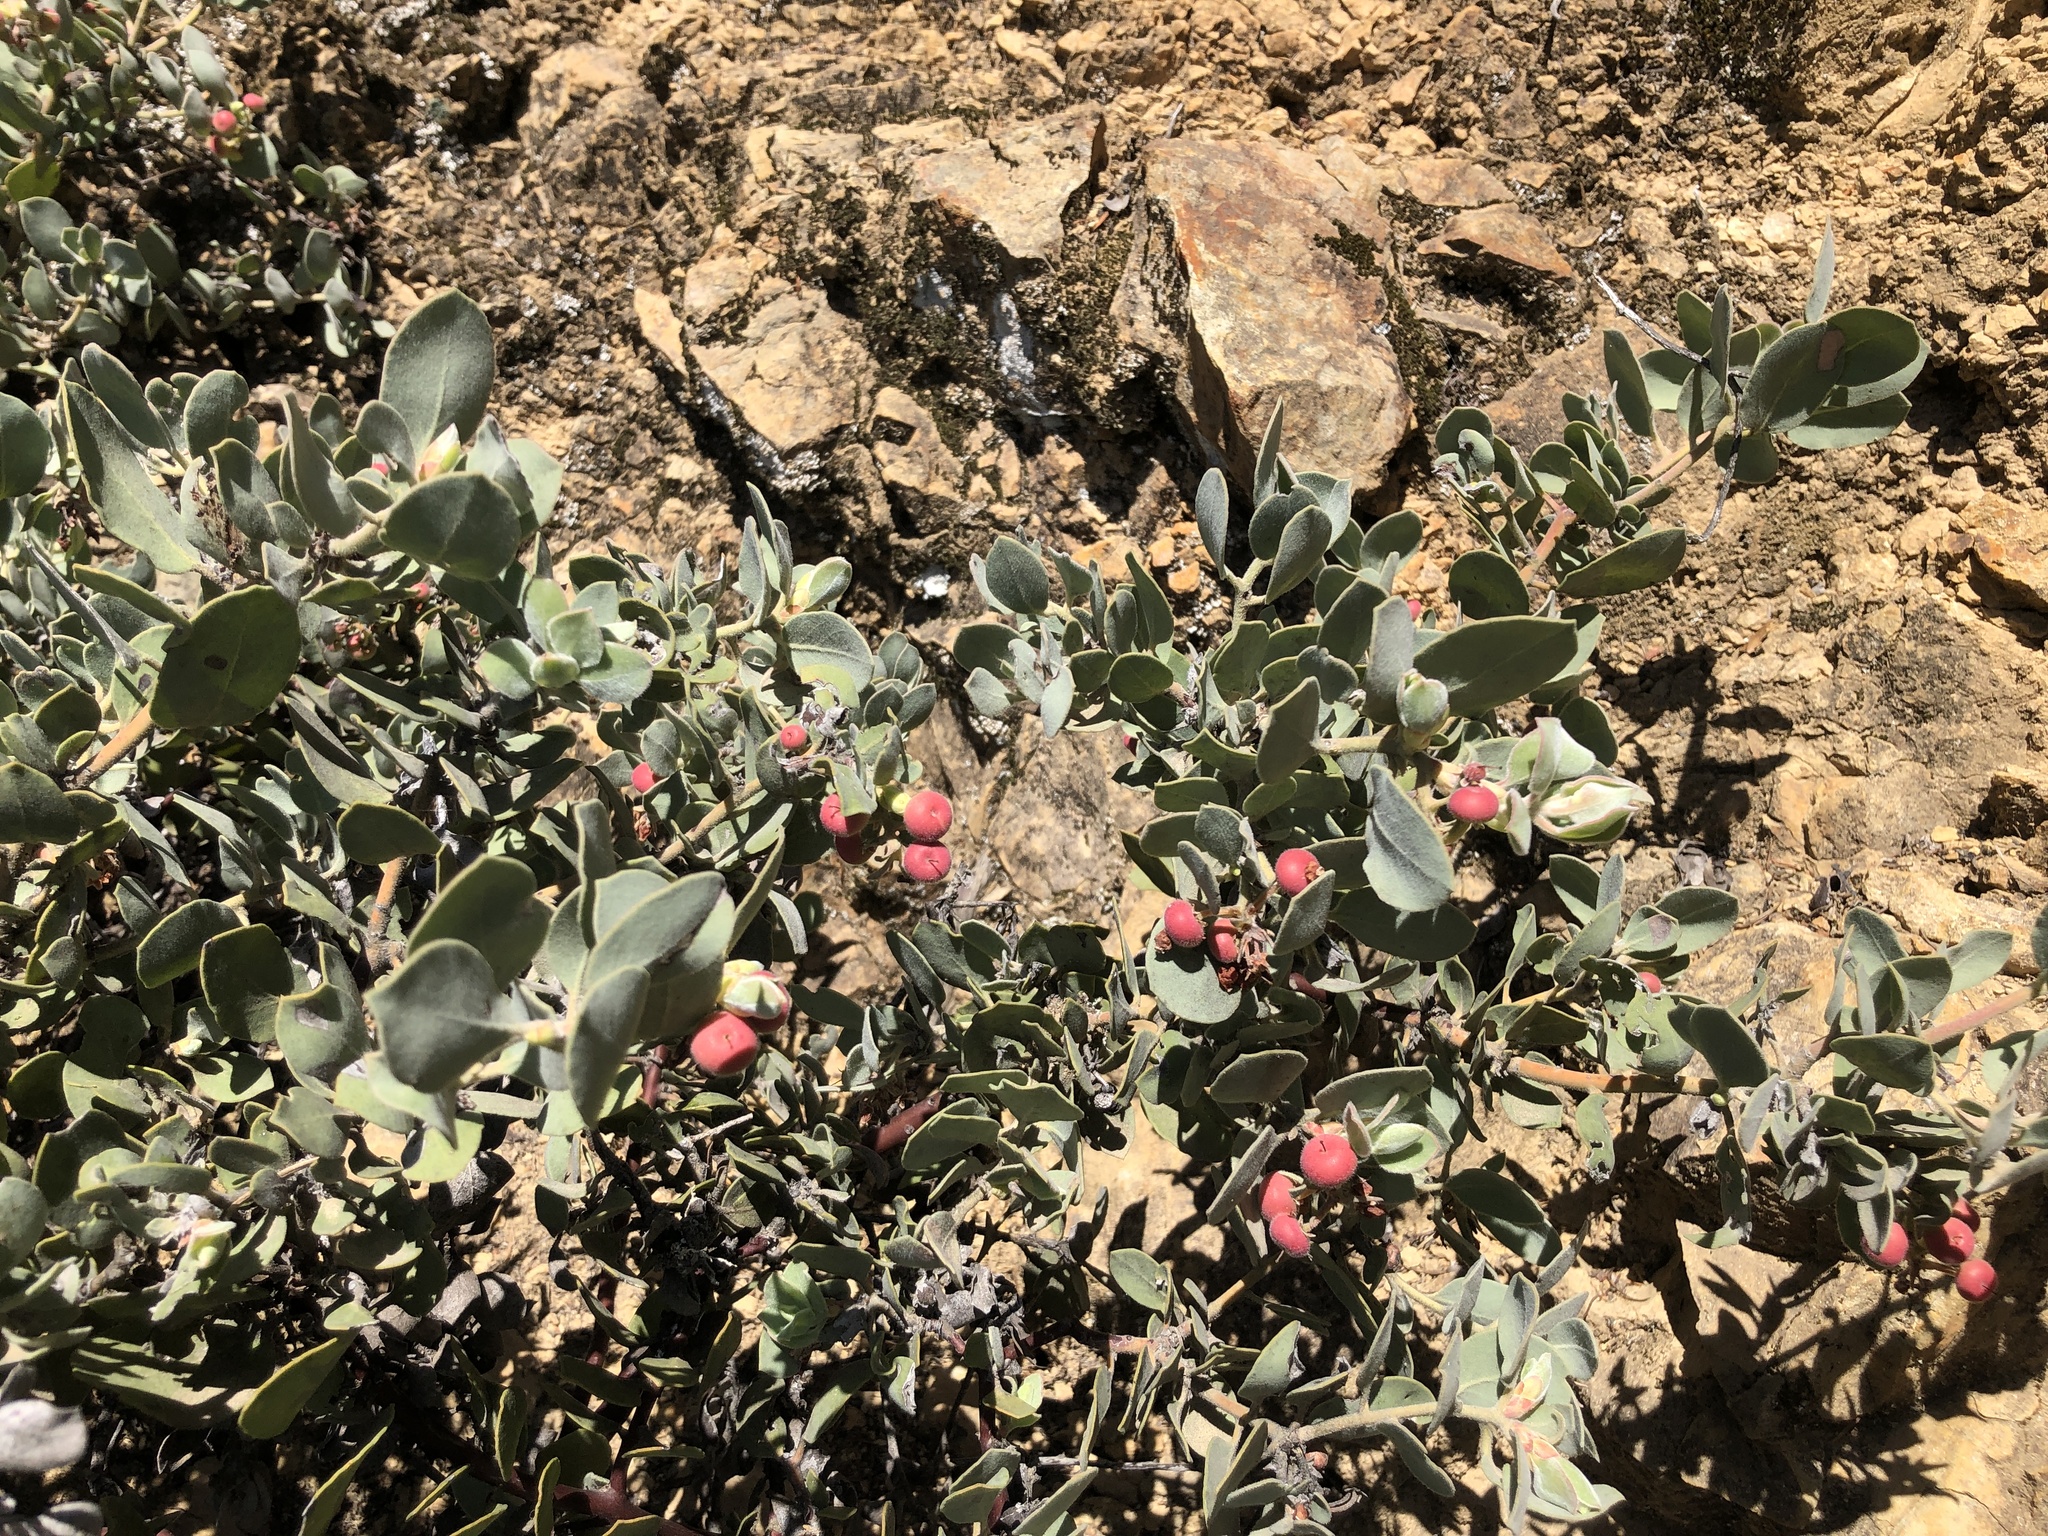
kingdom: Plantae
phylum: Tracheophyta
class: Magnoliopsida
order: Ericales
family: Ericaceae
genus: Arctostaphylos
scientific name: Arctostaphylos canescens
